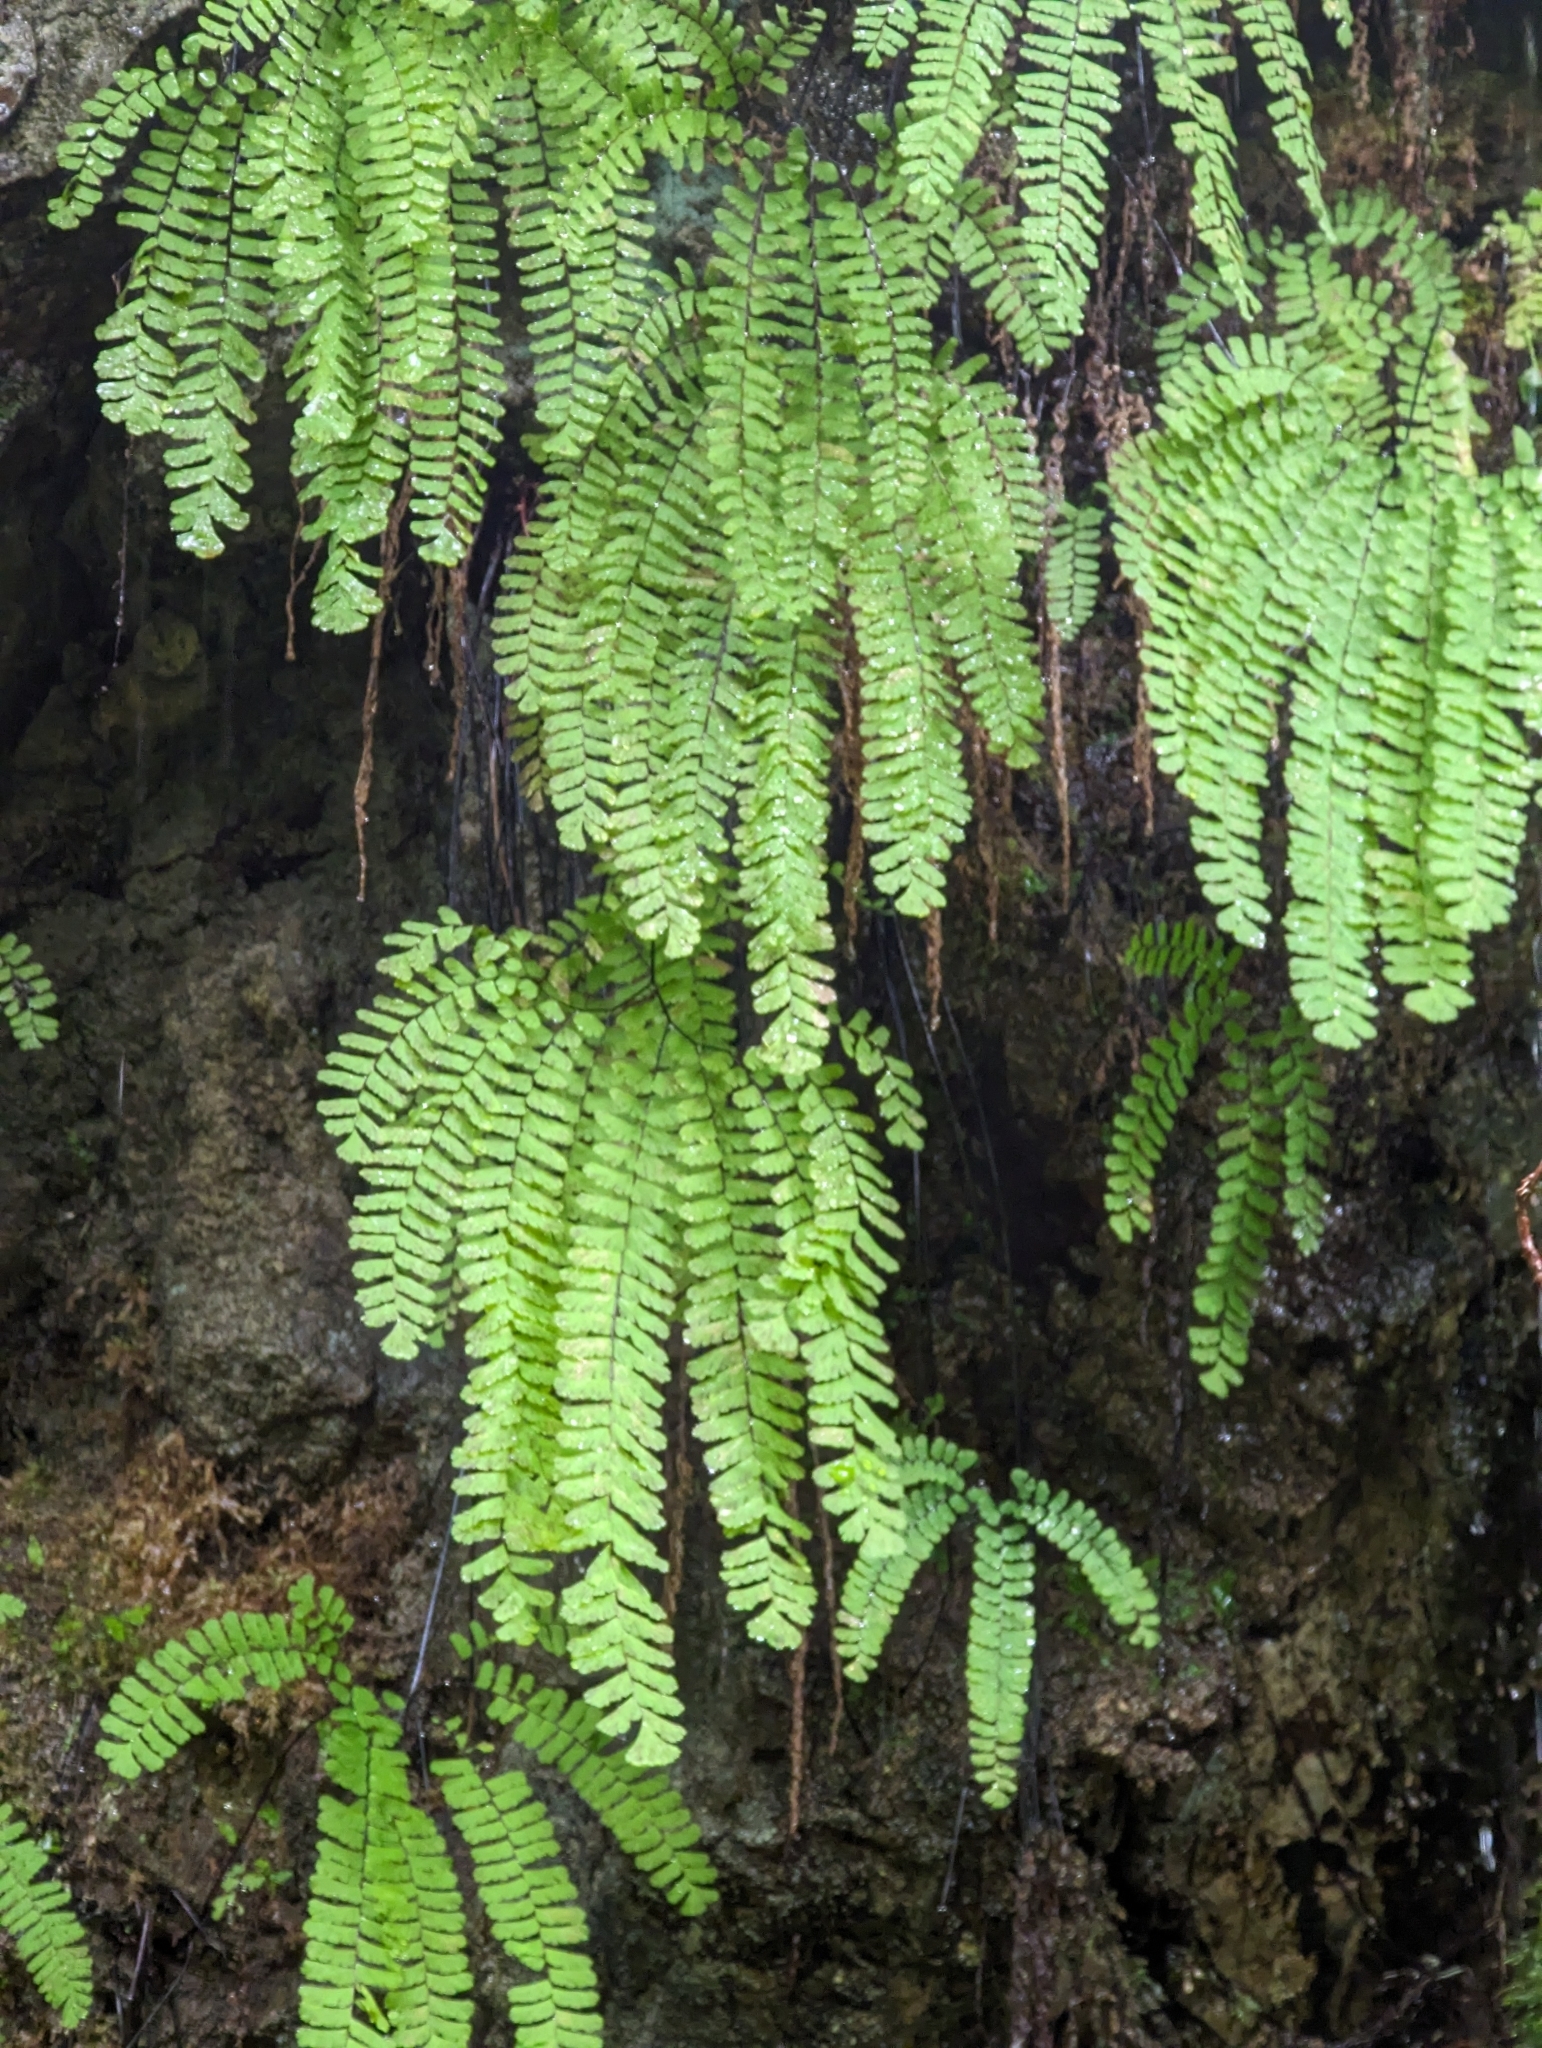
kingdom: Plantae
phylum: Tracheophyta
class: Polypodiopsida
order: Polypodiales
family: Pteridaceae
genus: Adiantum
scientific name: Adiantum aleuticum
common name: Aleutian maidenhair fern
